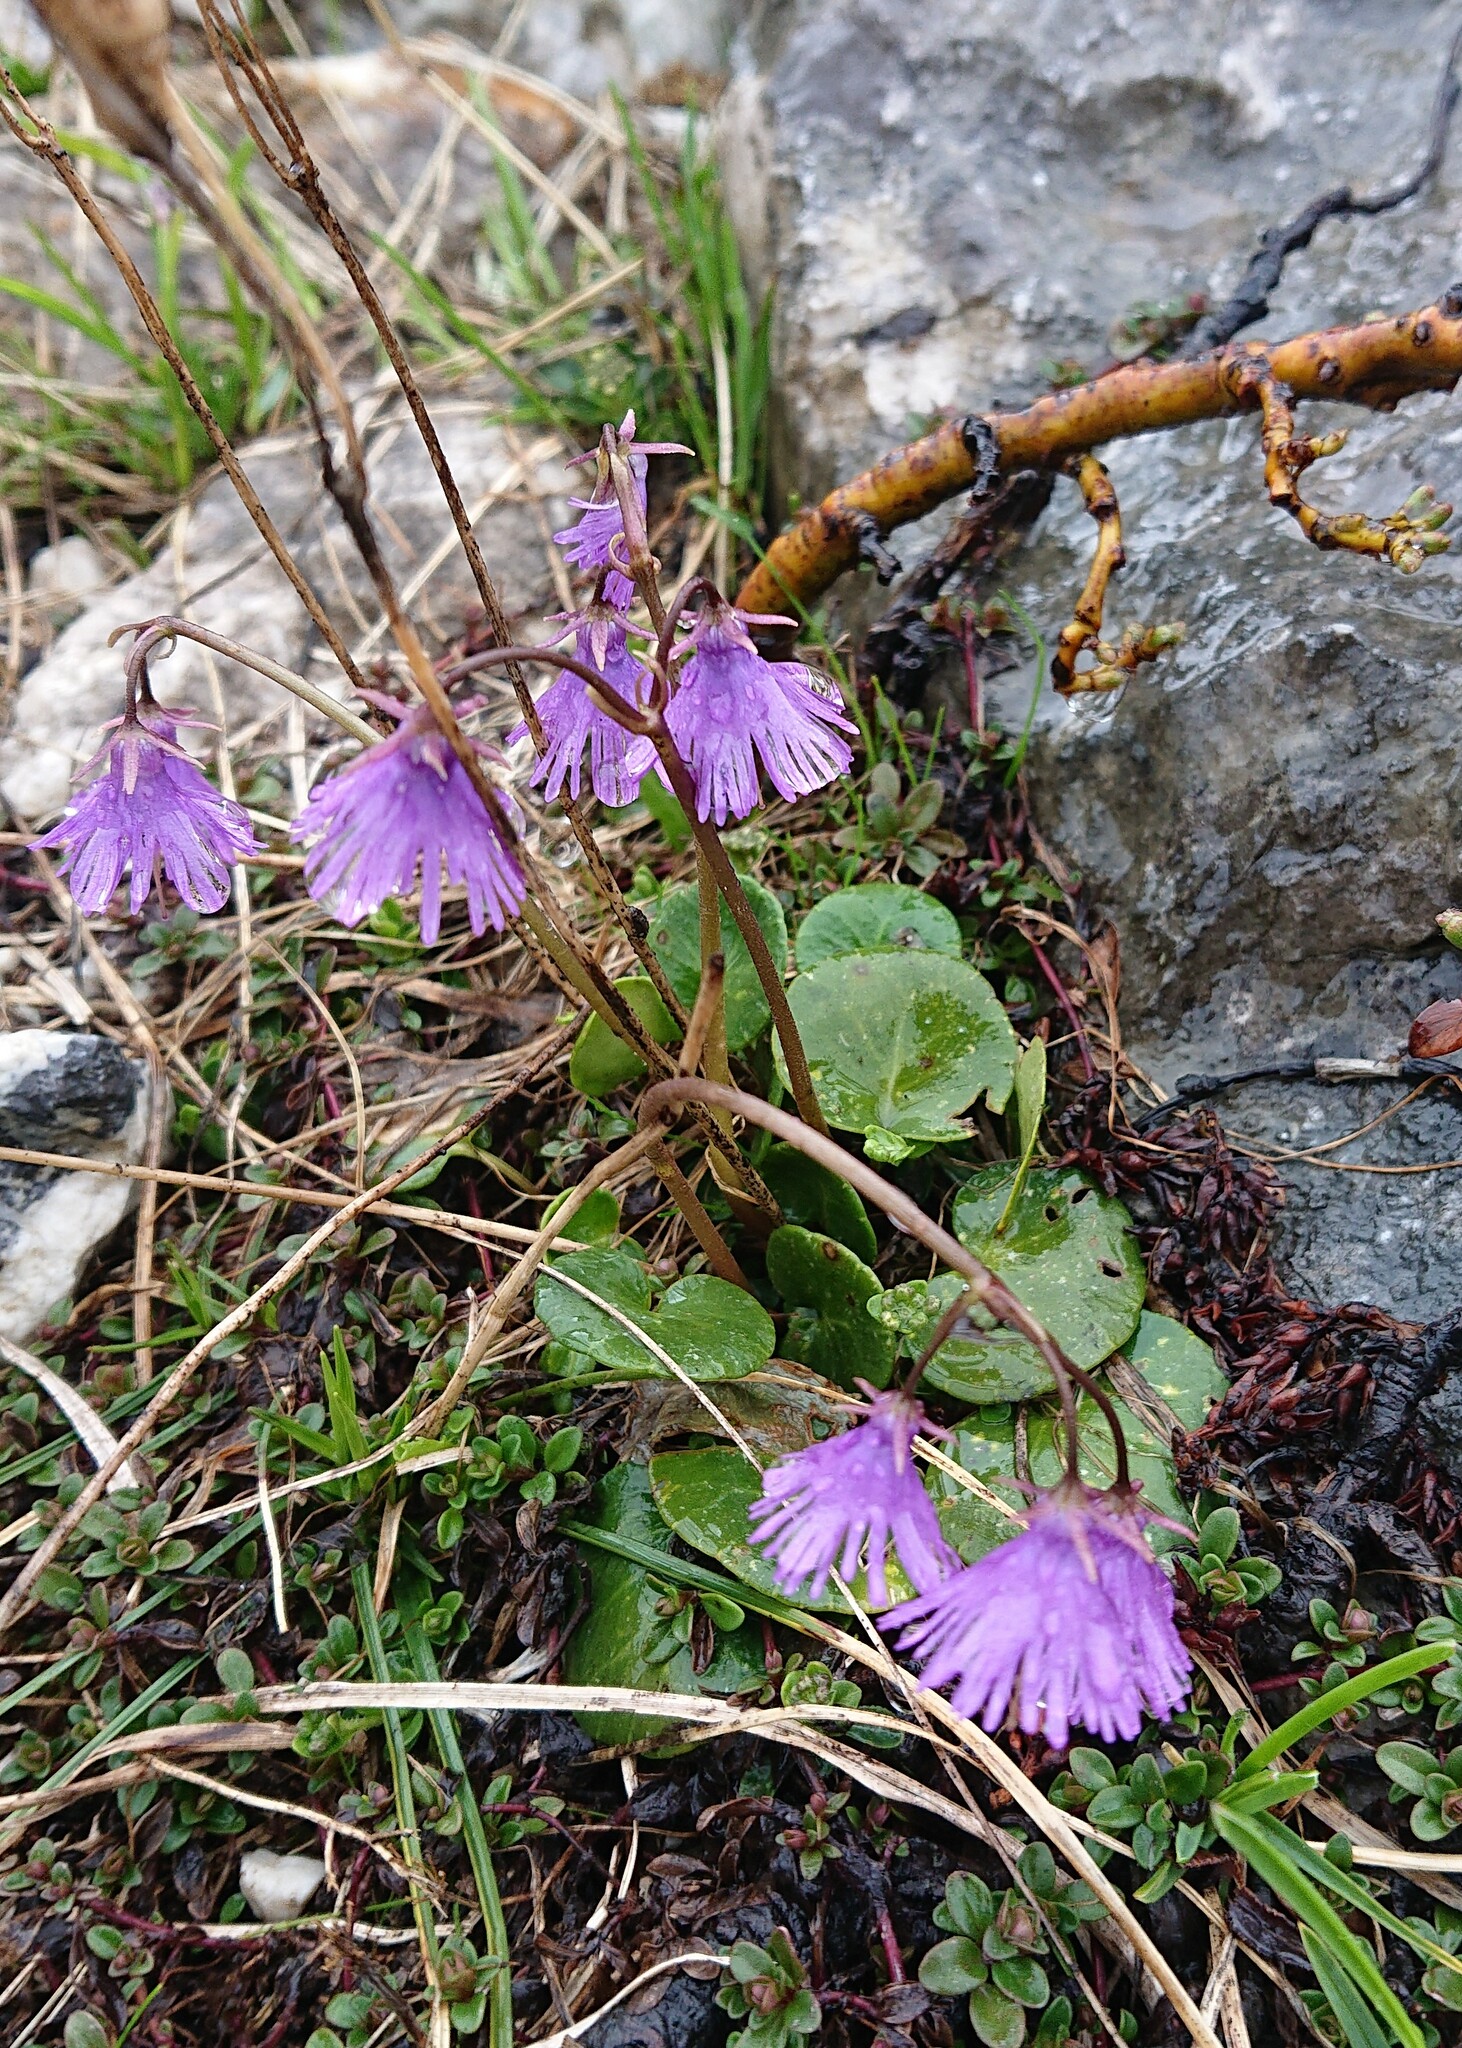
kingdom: Plantae
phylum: Tracheophyta
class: Magnoliopsida
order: Ericales
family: Primulaceae
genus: Soldanella
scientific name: Soldanella alpina
